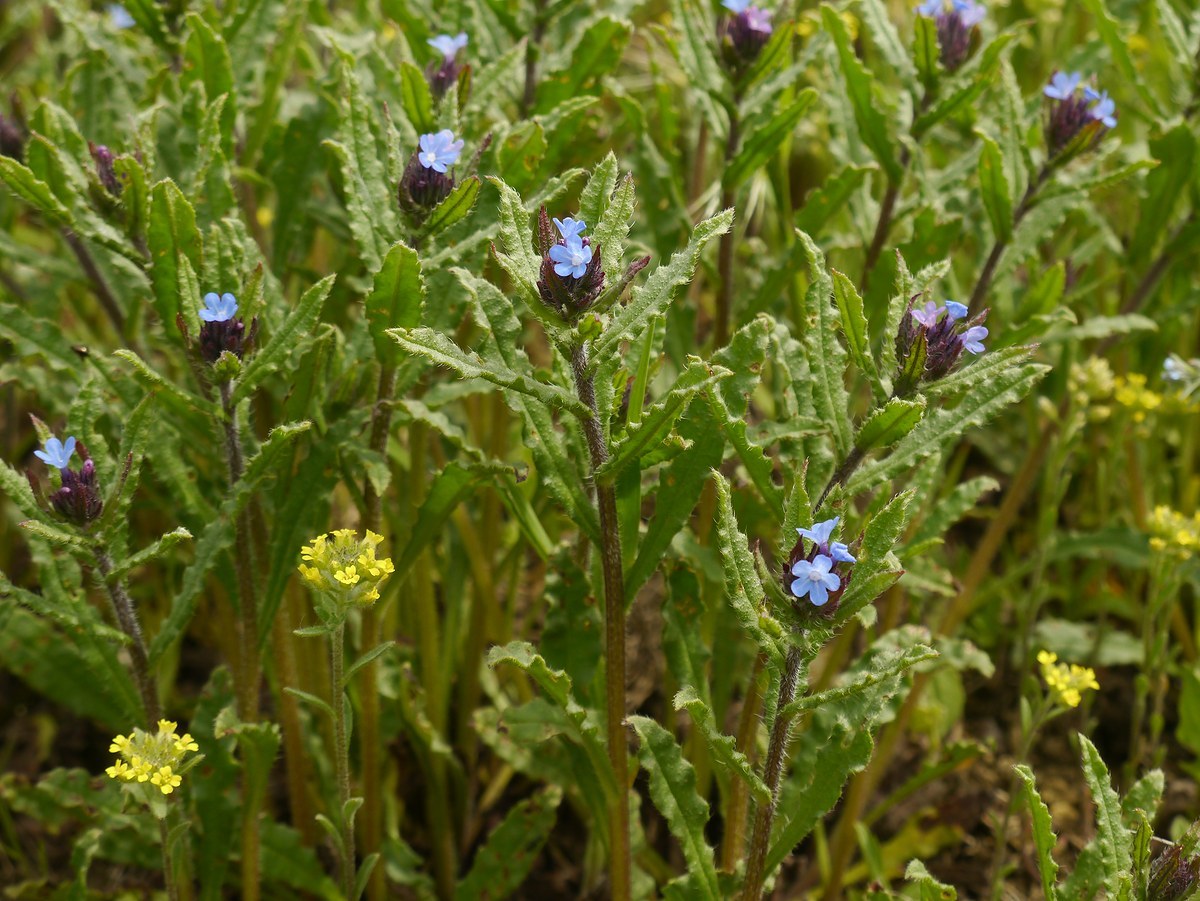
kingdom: Plantae
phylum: Tracheophyta
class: Magnoliopsida
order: Boraginales
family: Boraginaceae
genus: Lycopsis
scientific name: Lycopsis arvensis
